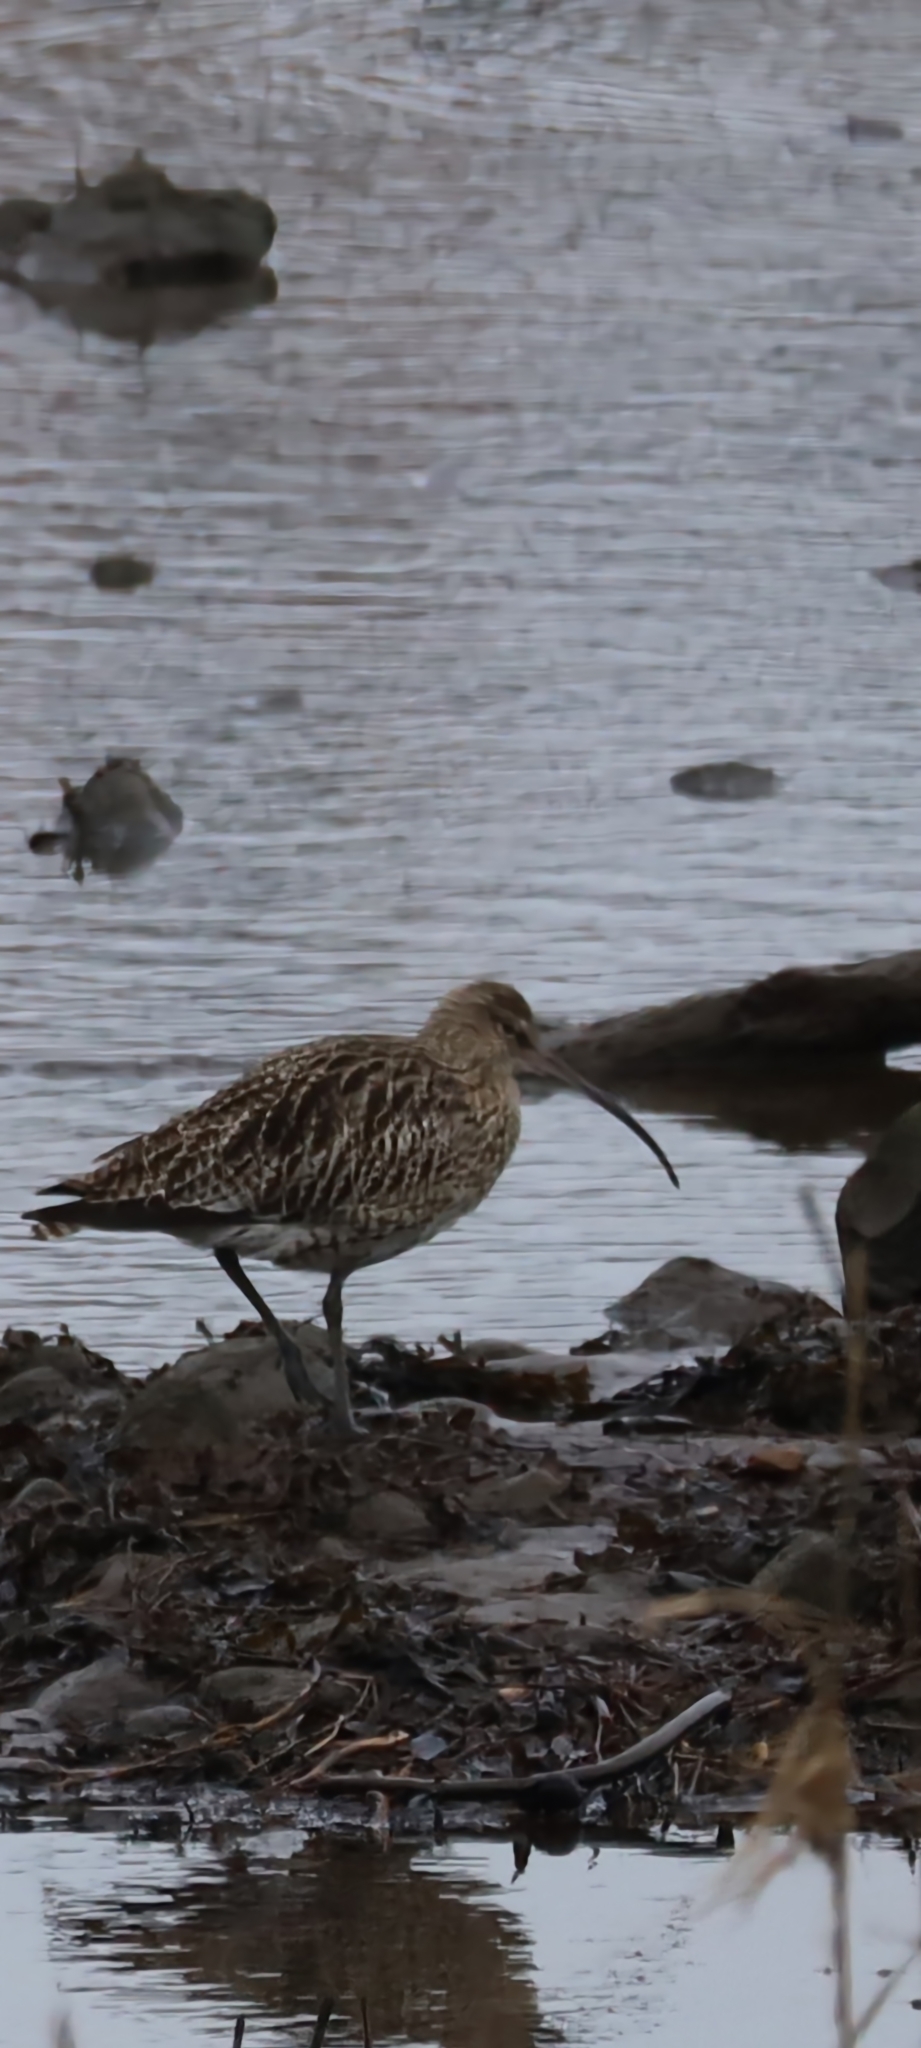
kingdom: Animalia
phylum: Chordata
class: Aves
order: Charadriiformes
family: Scolopacidae
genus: Numenius
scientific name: Numenius arquata
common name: Eurasian curlew
